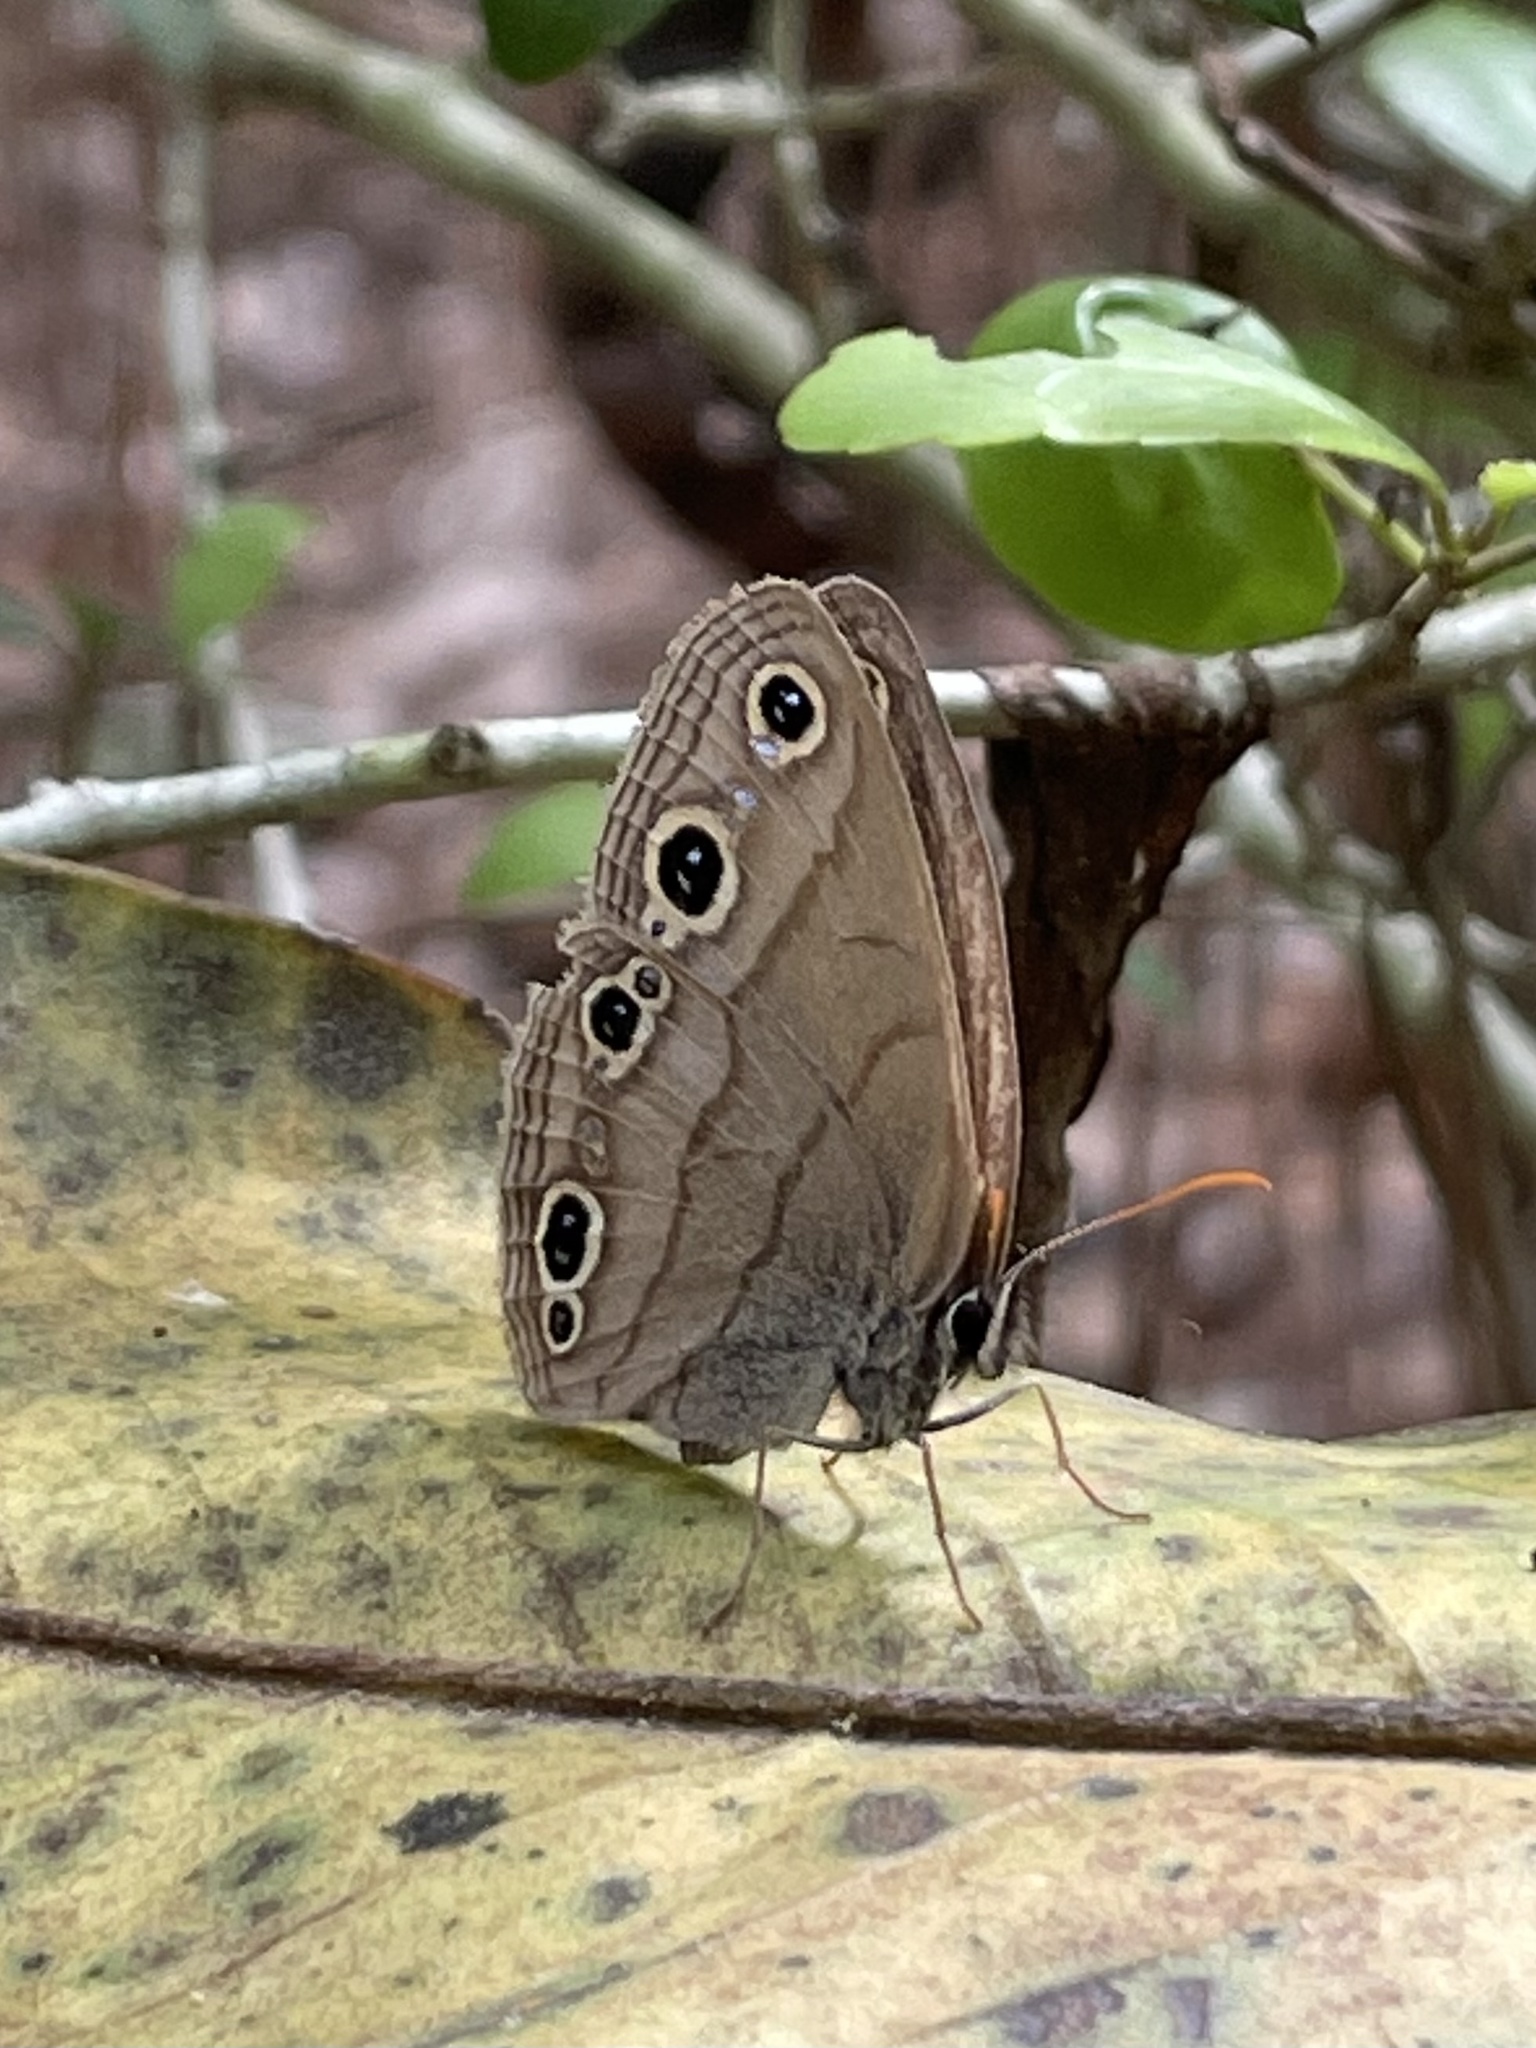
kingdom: Animalia
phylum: Arthropoda
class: Insecta
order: Lepidoptera
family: Nymphalidae
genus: Euptychia
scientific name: Euptychia cymela
